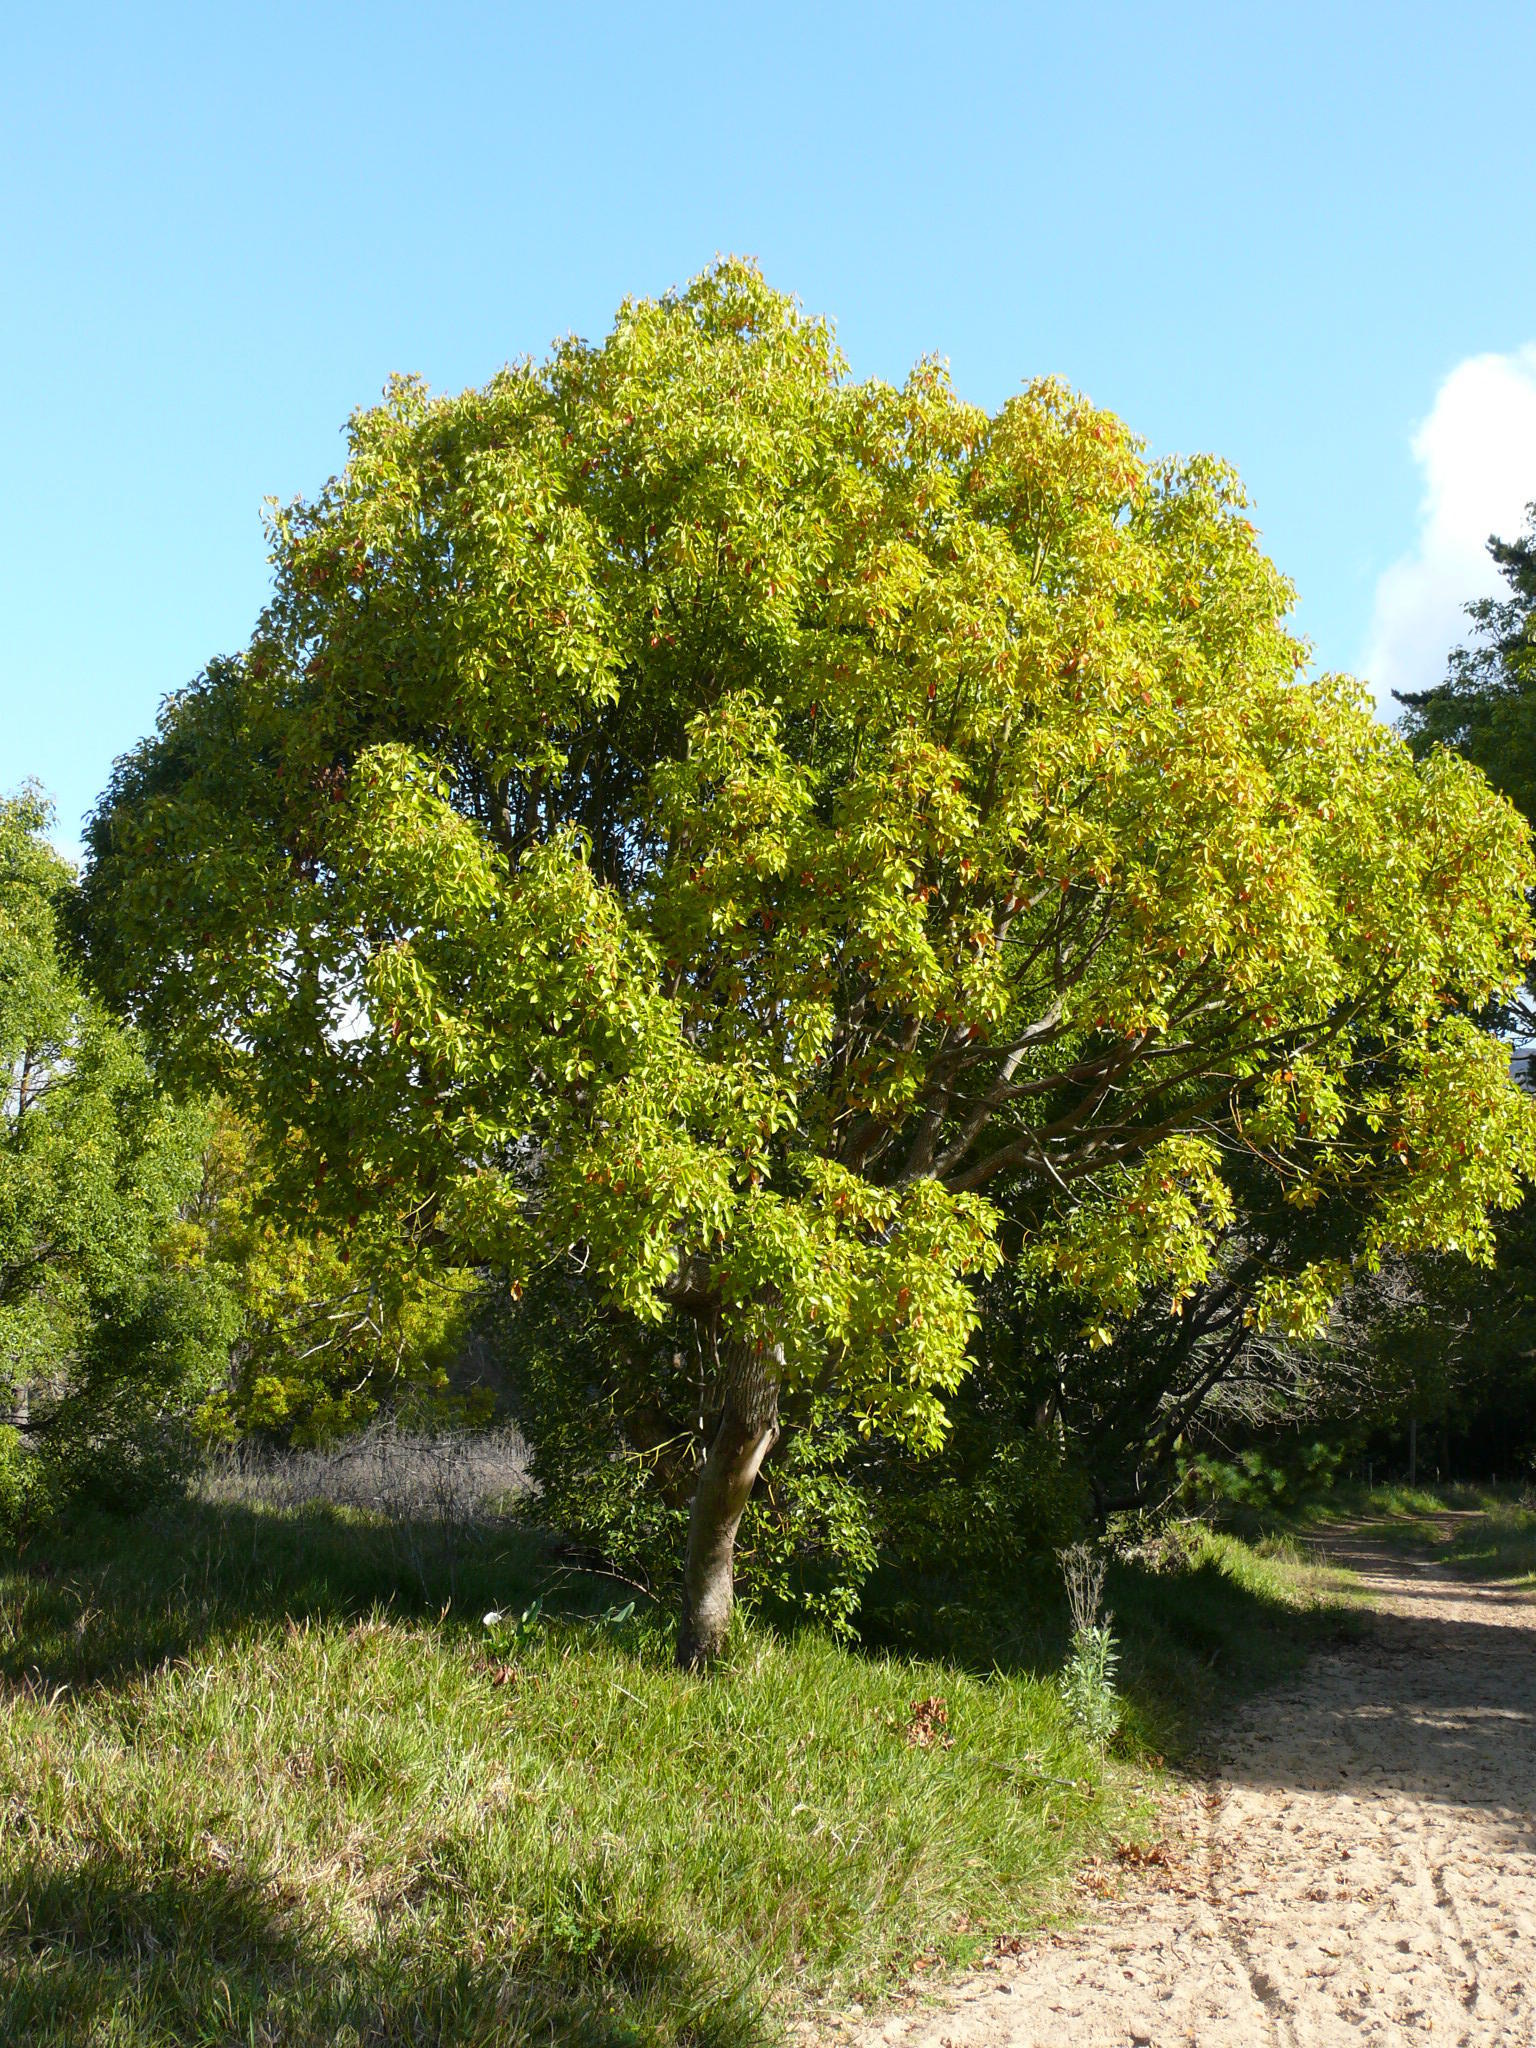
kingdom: Plantae
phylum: Tracheophyta
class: Magnoliopsida
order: Laurales
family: Lauraceae
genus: Cinnamomum
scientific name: Cinnamomum camphora
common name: Camphortree
